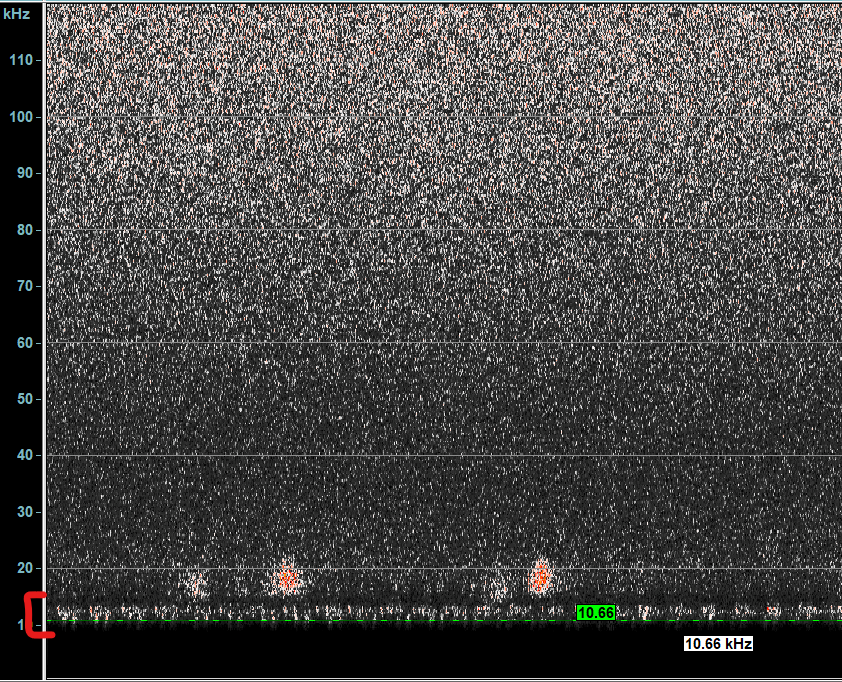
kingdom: Animalia
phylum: Arthropoda
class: Insecta
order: Orthoptera
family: Tettigoniidae
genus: Tettigonia
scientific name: Tettigonia viridissima
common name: Great green bush-cricket
